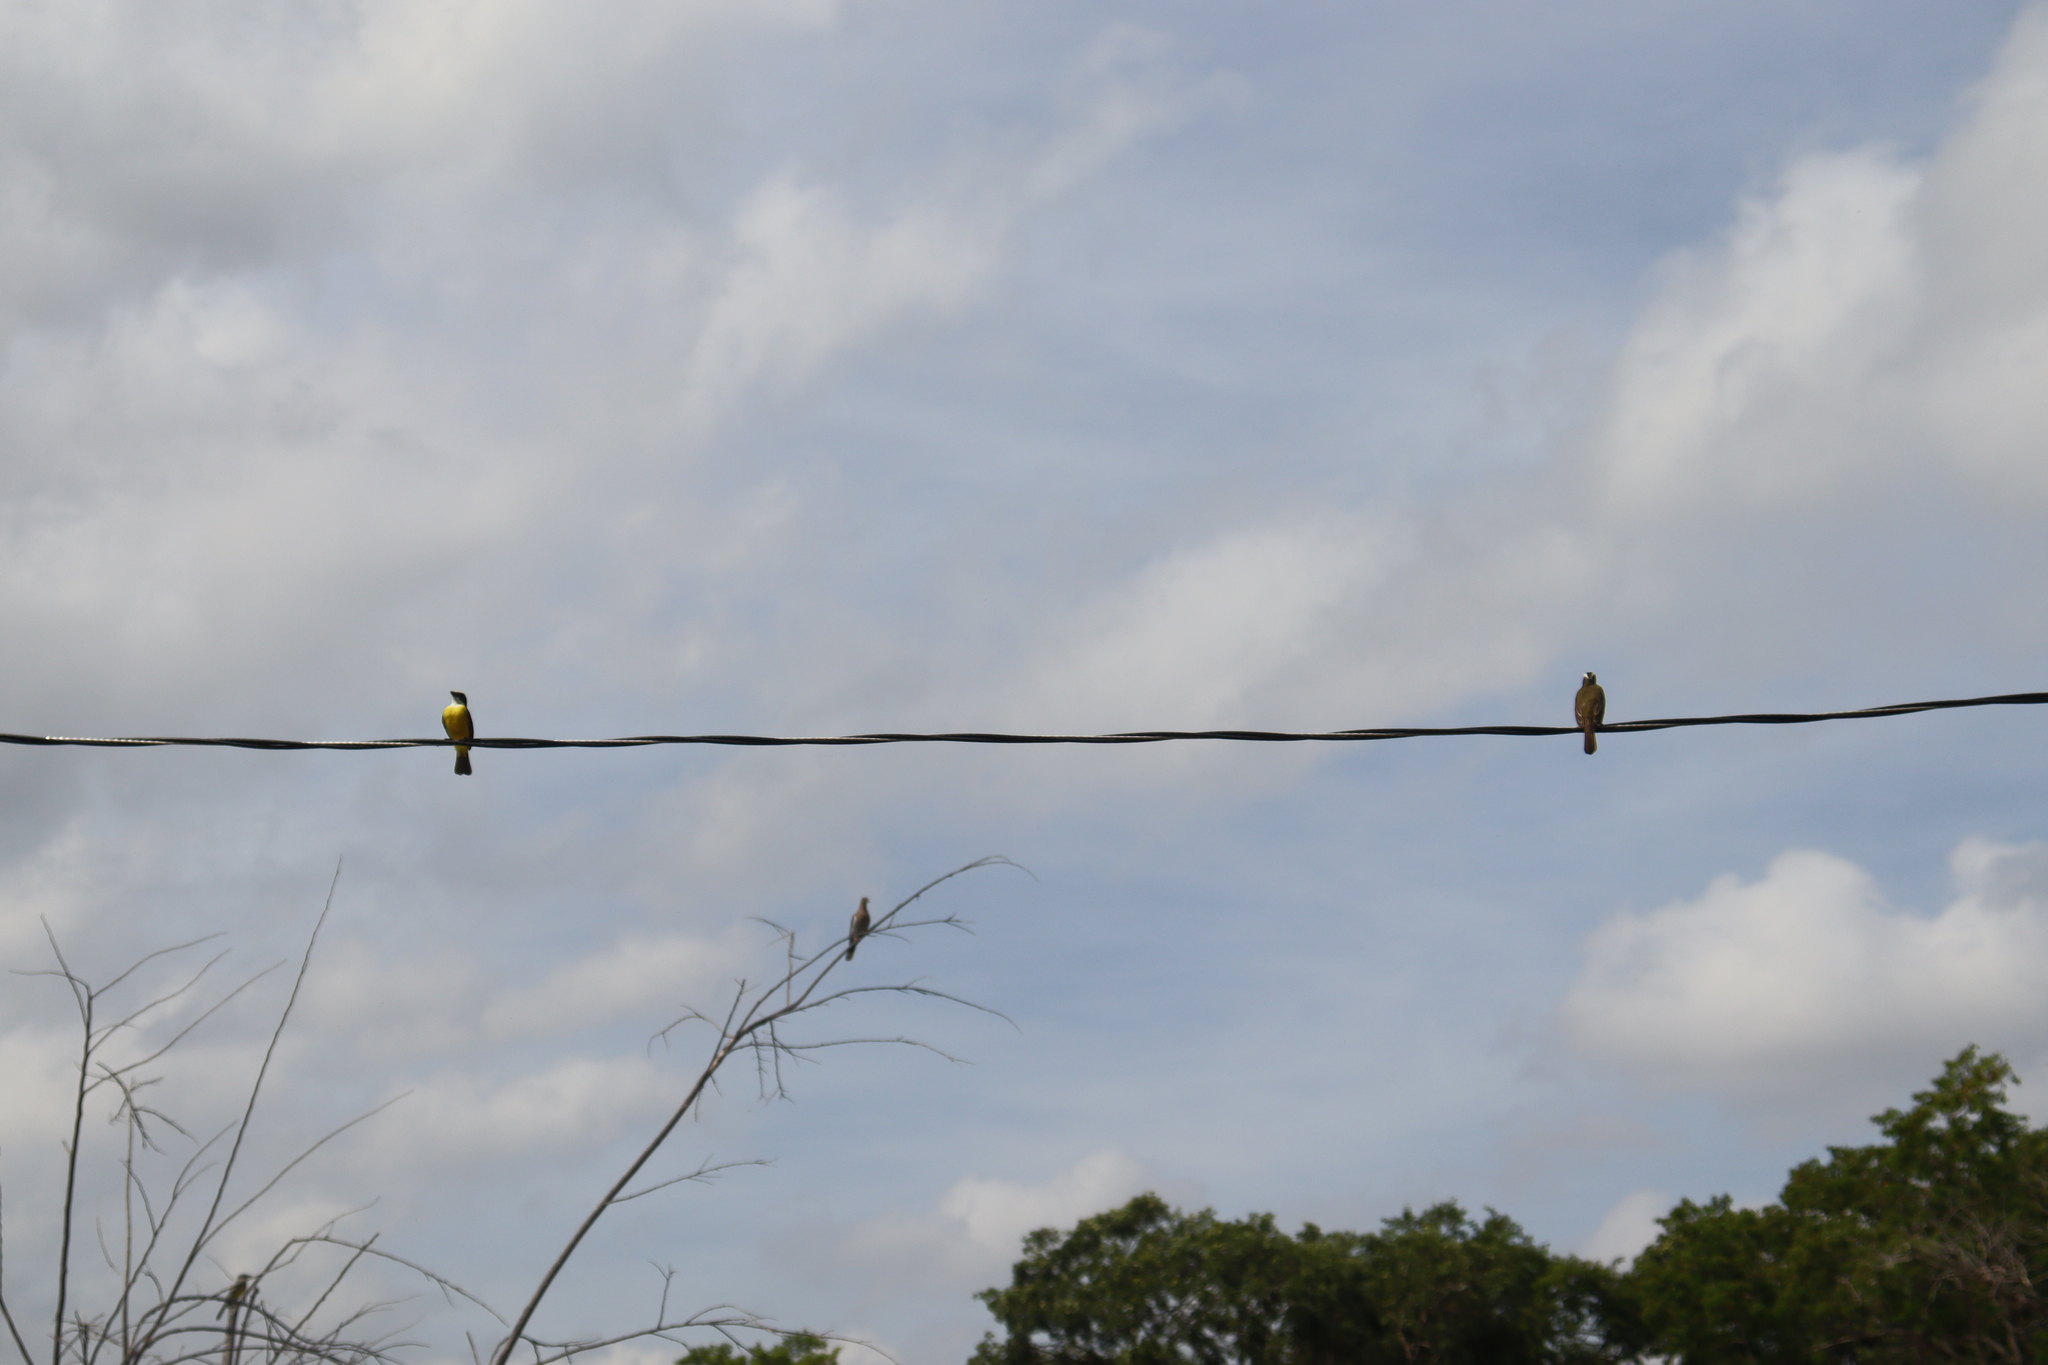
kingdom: Animalia
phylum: Chordata
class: Aves
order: Passeriformes
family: Tyrannidae
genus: Myiozetetes
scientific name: Myiozetetes similis
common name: Social flycatcher
